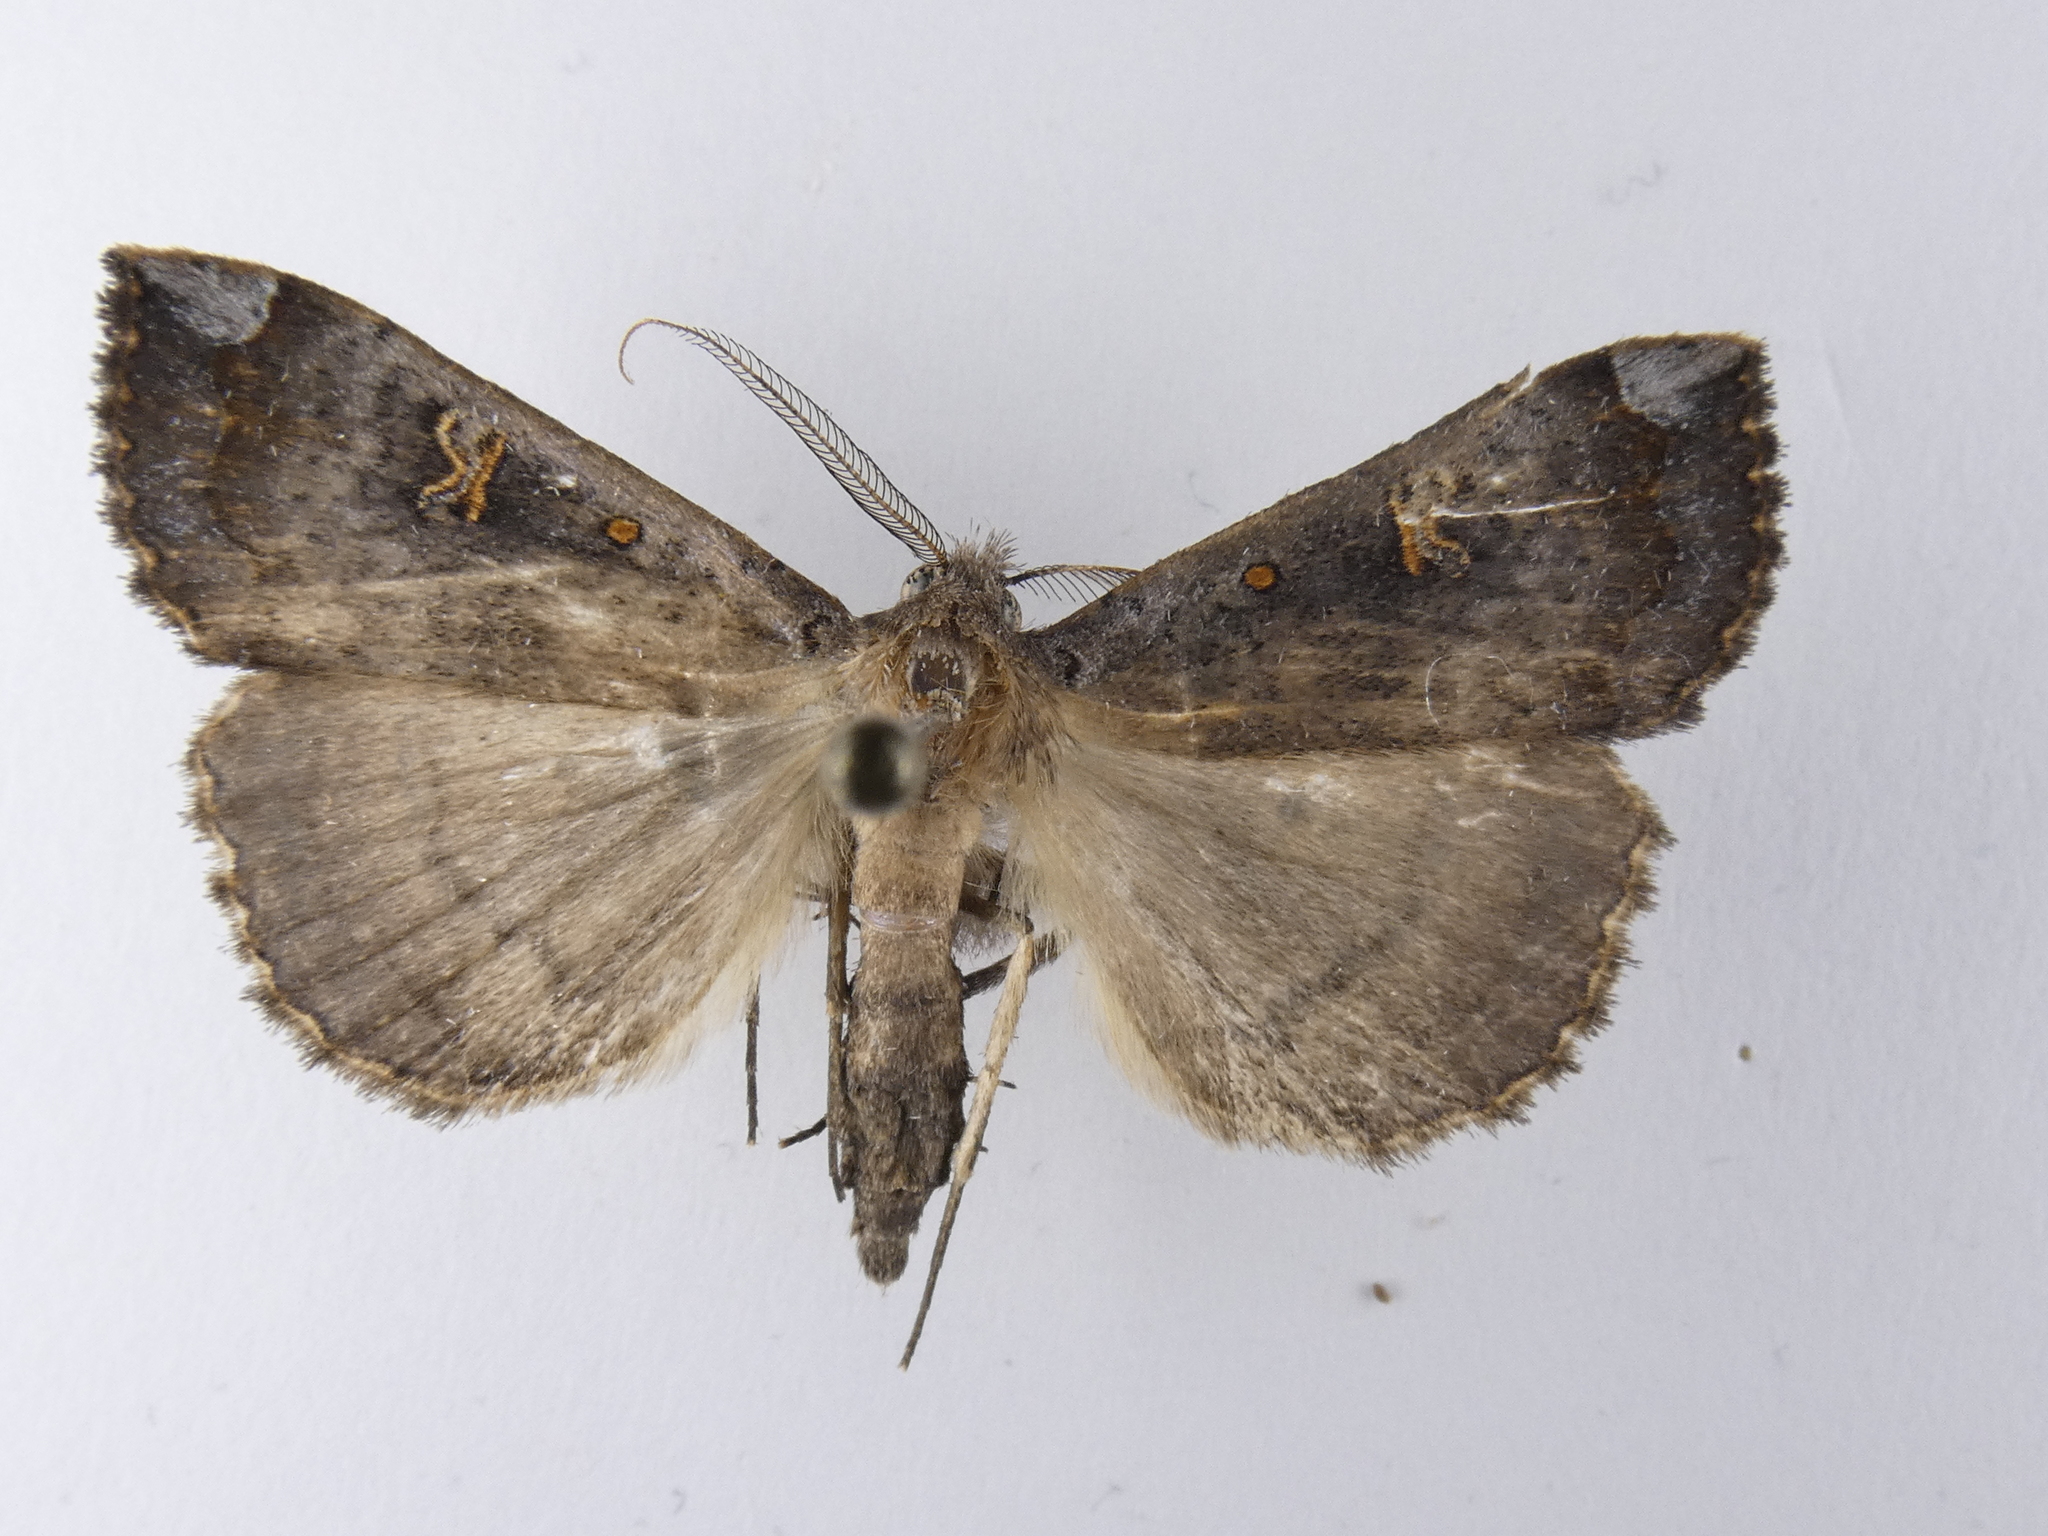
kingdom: Animalia
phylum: Arthropoda
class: Insecta
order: Lepidoptera
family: Erebidae
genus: Rhapsa
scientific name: Rhapsa scotosialis
